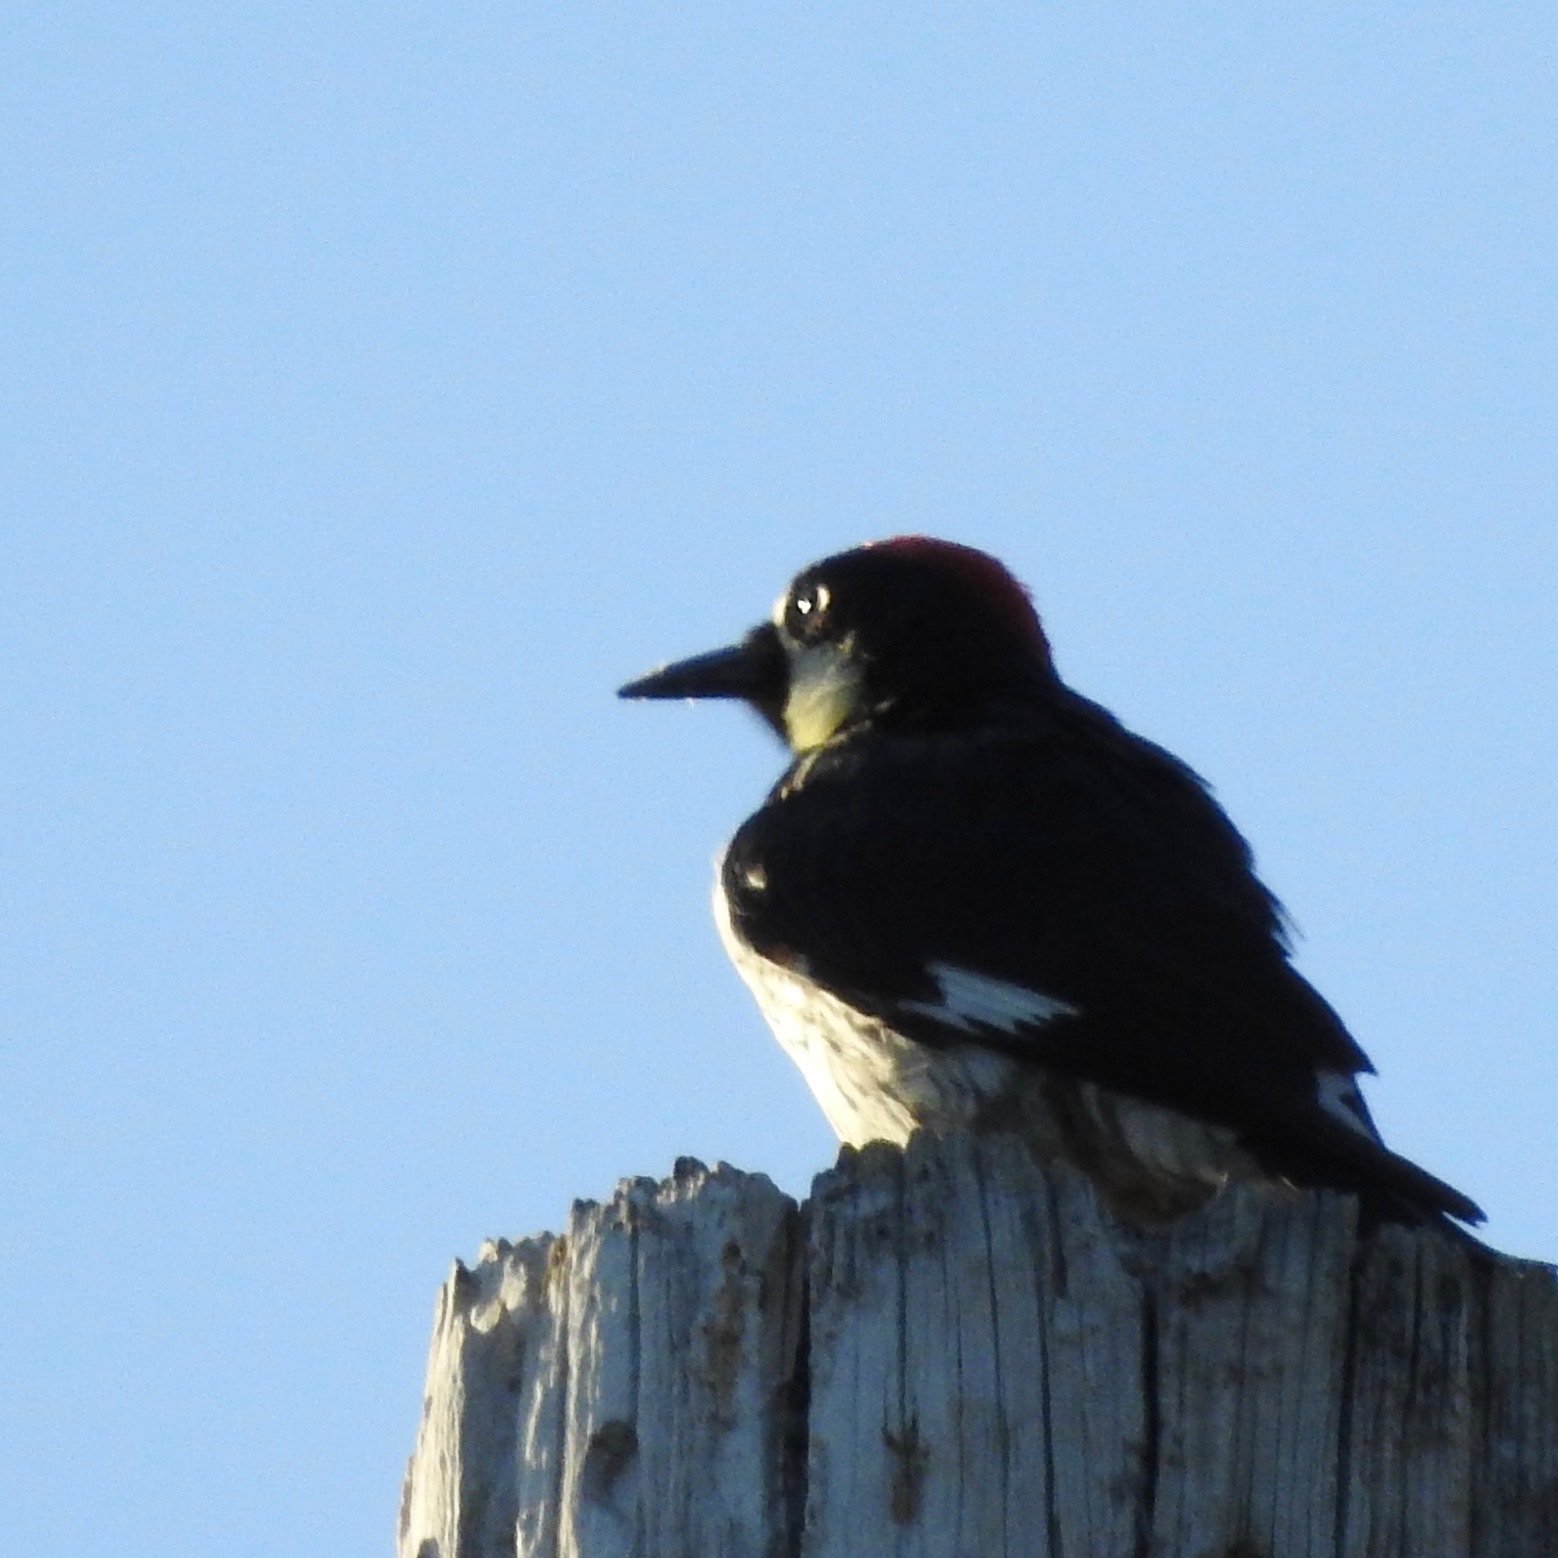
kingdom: Animalia
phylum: Chordata
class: Aves
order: Piciformes
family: Picidae
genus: Melanerpes
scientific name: Melanerpes formicivorus
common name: Acorn woodpecker
